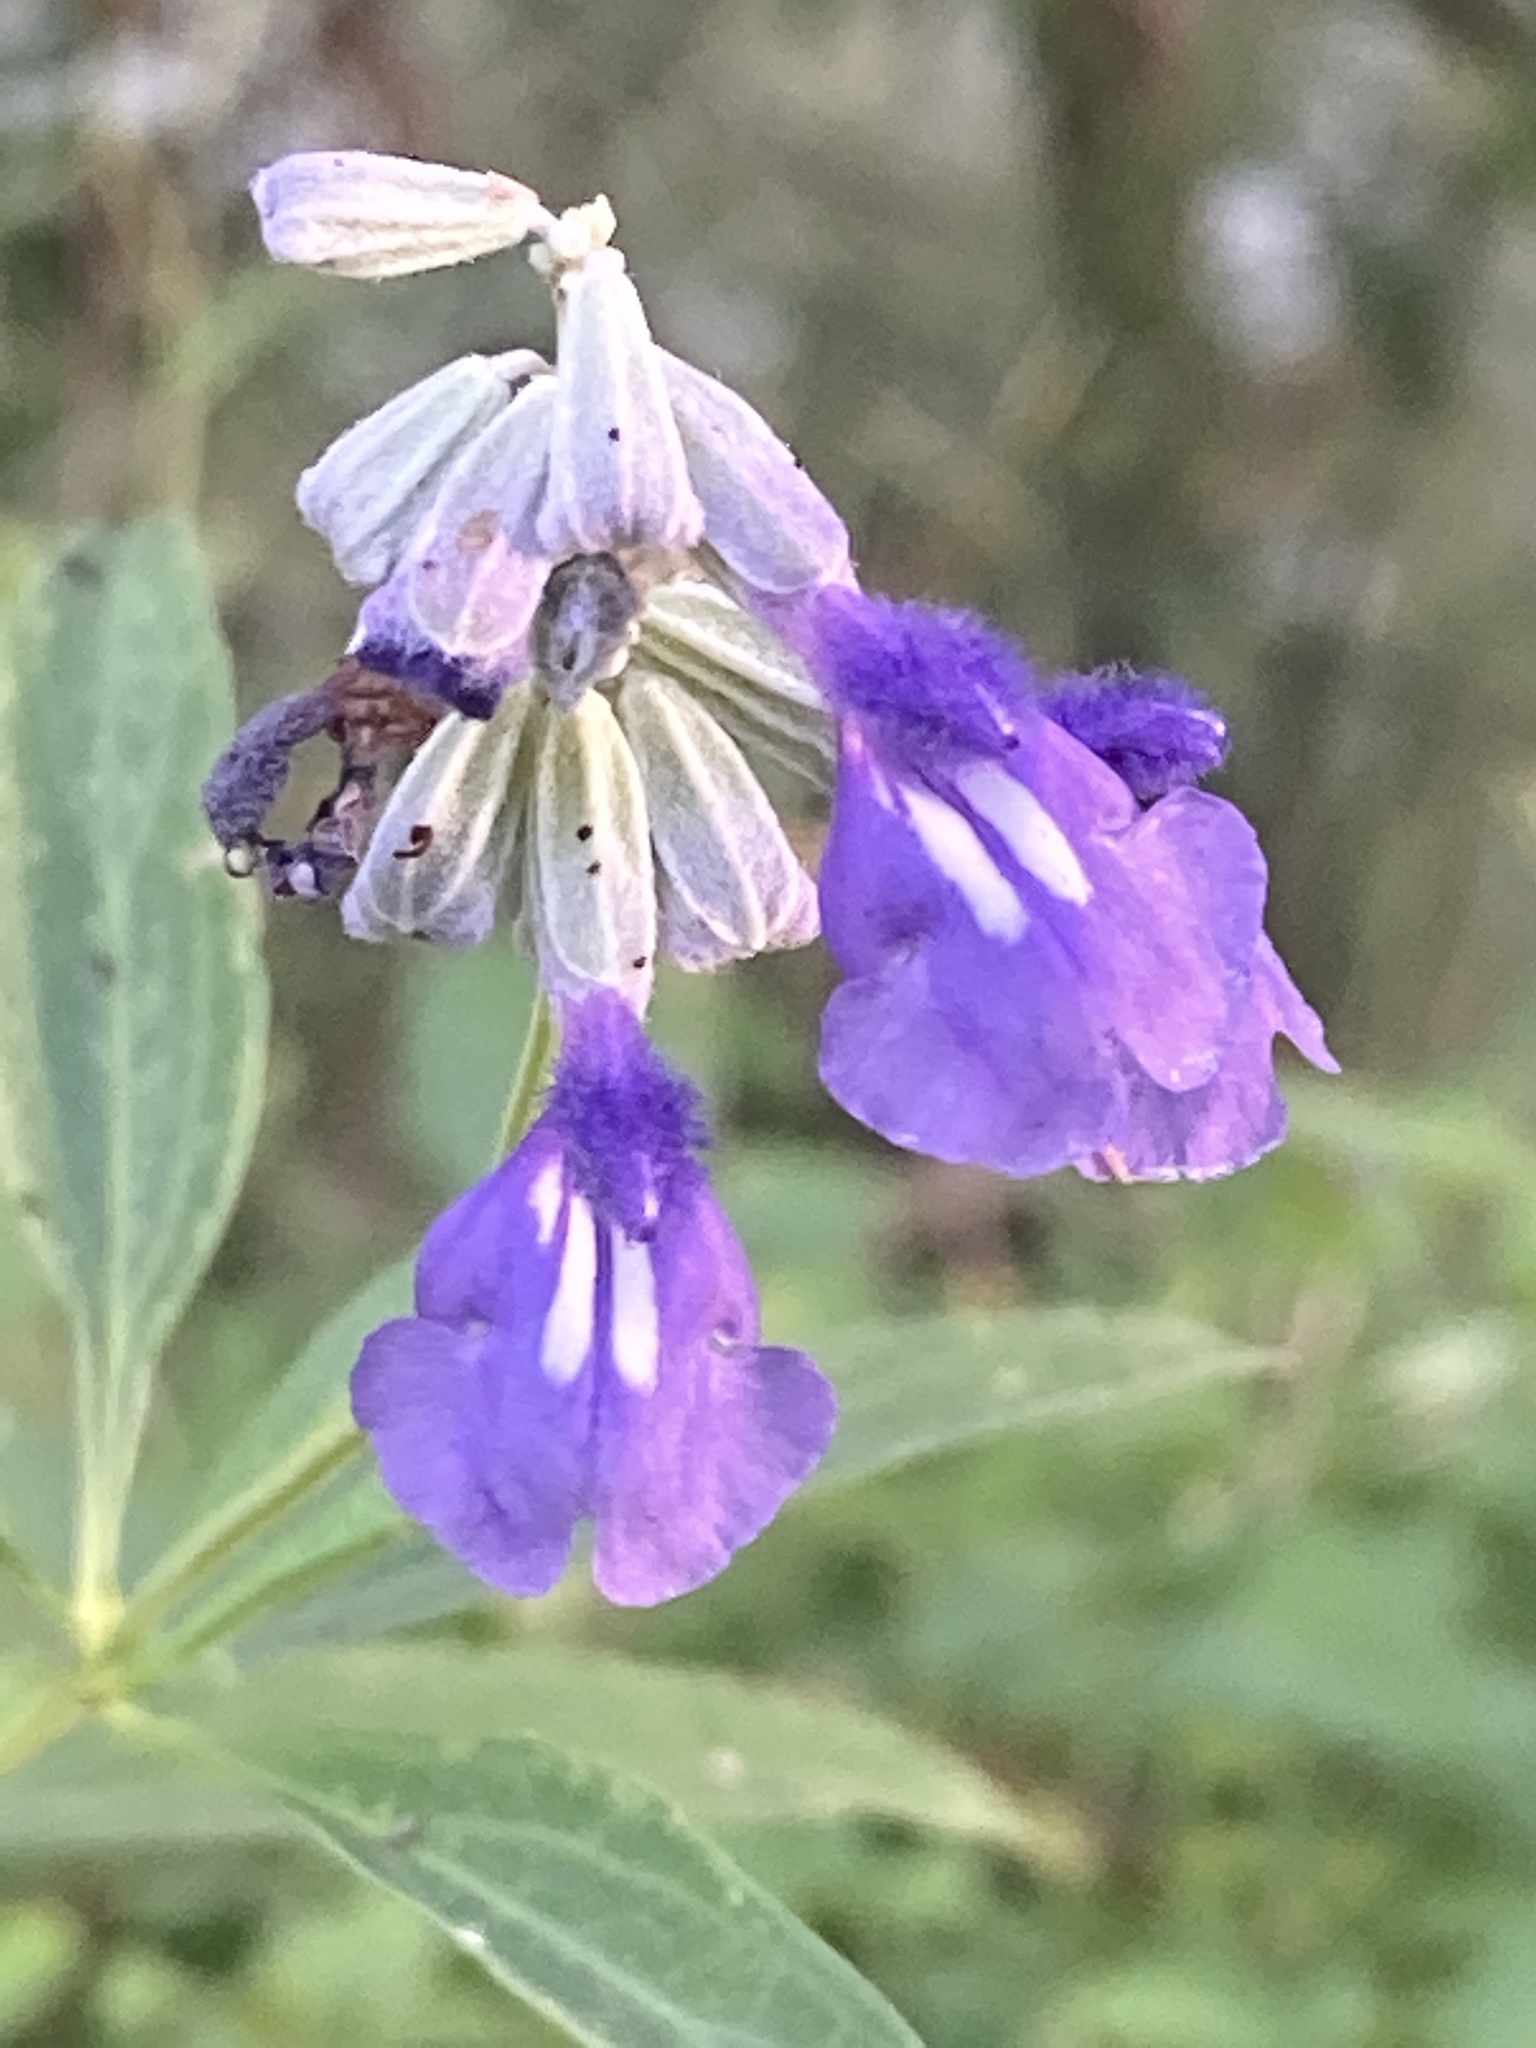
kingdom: Plantae
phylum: Tracheophyta
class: Magnoliopsida
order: Lamiales
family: Lamiaceae
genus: Salvia
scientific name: Salvia farinacea
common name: Mealy sage
